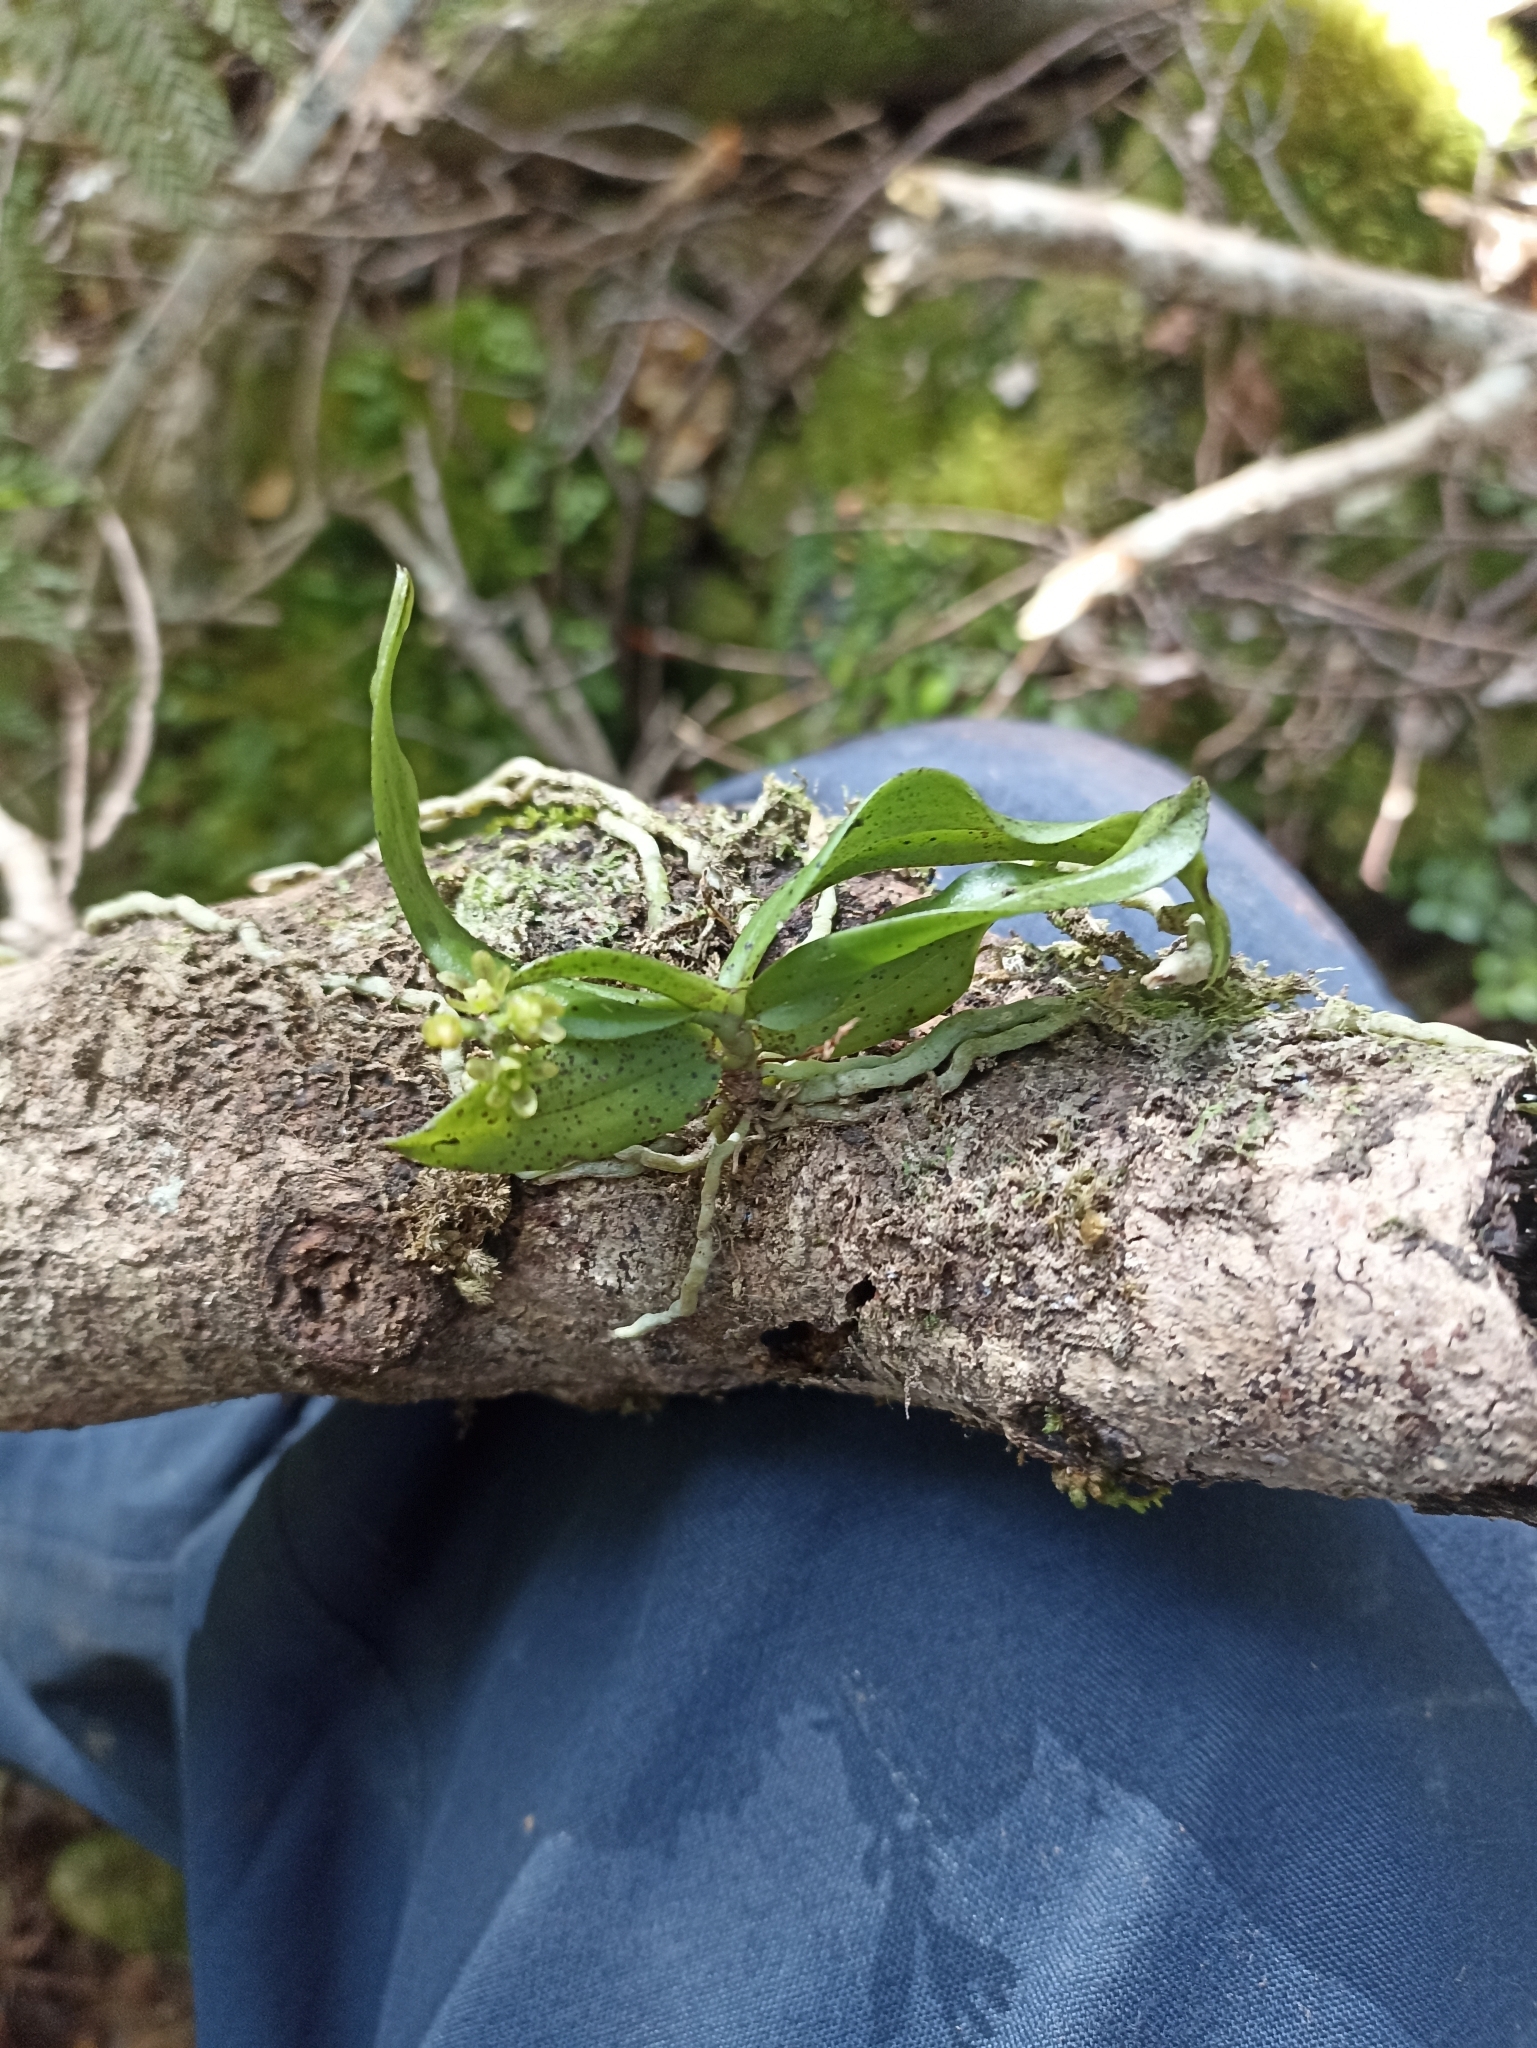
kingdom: Plantae
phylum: Tracheophyta
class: Liliopsida
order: Asparagales
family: Orchidaceae
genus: Drymoanthus
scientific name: Drymoanthus flavus
